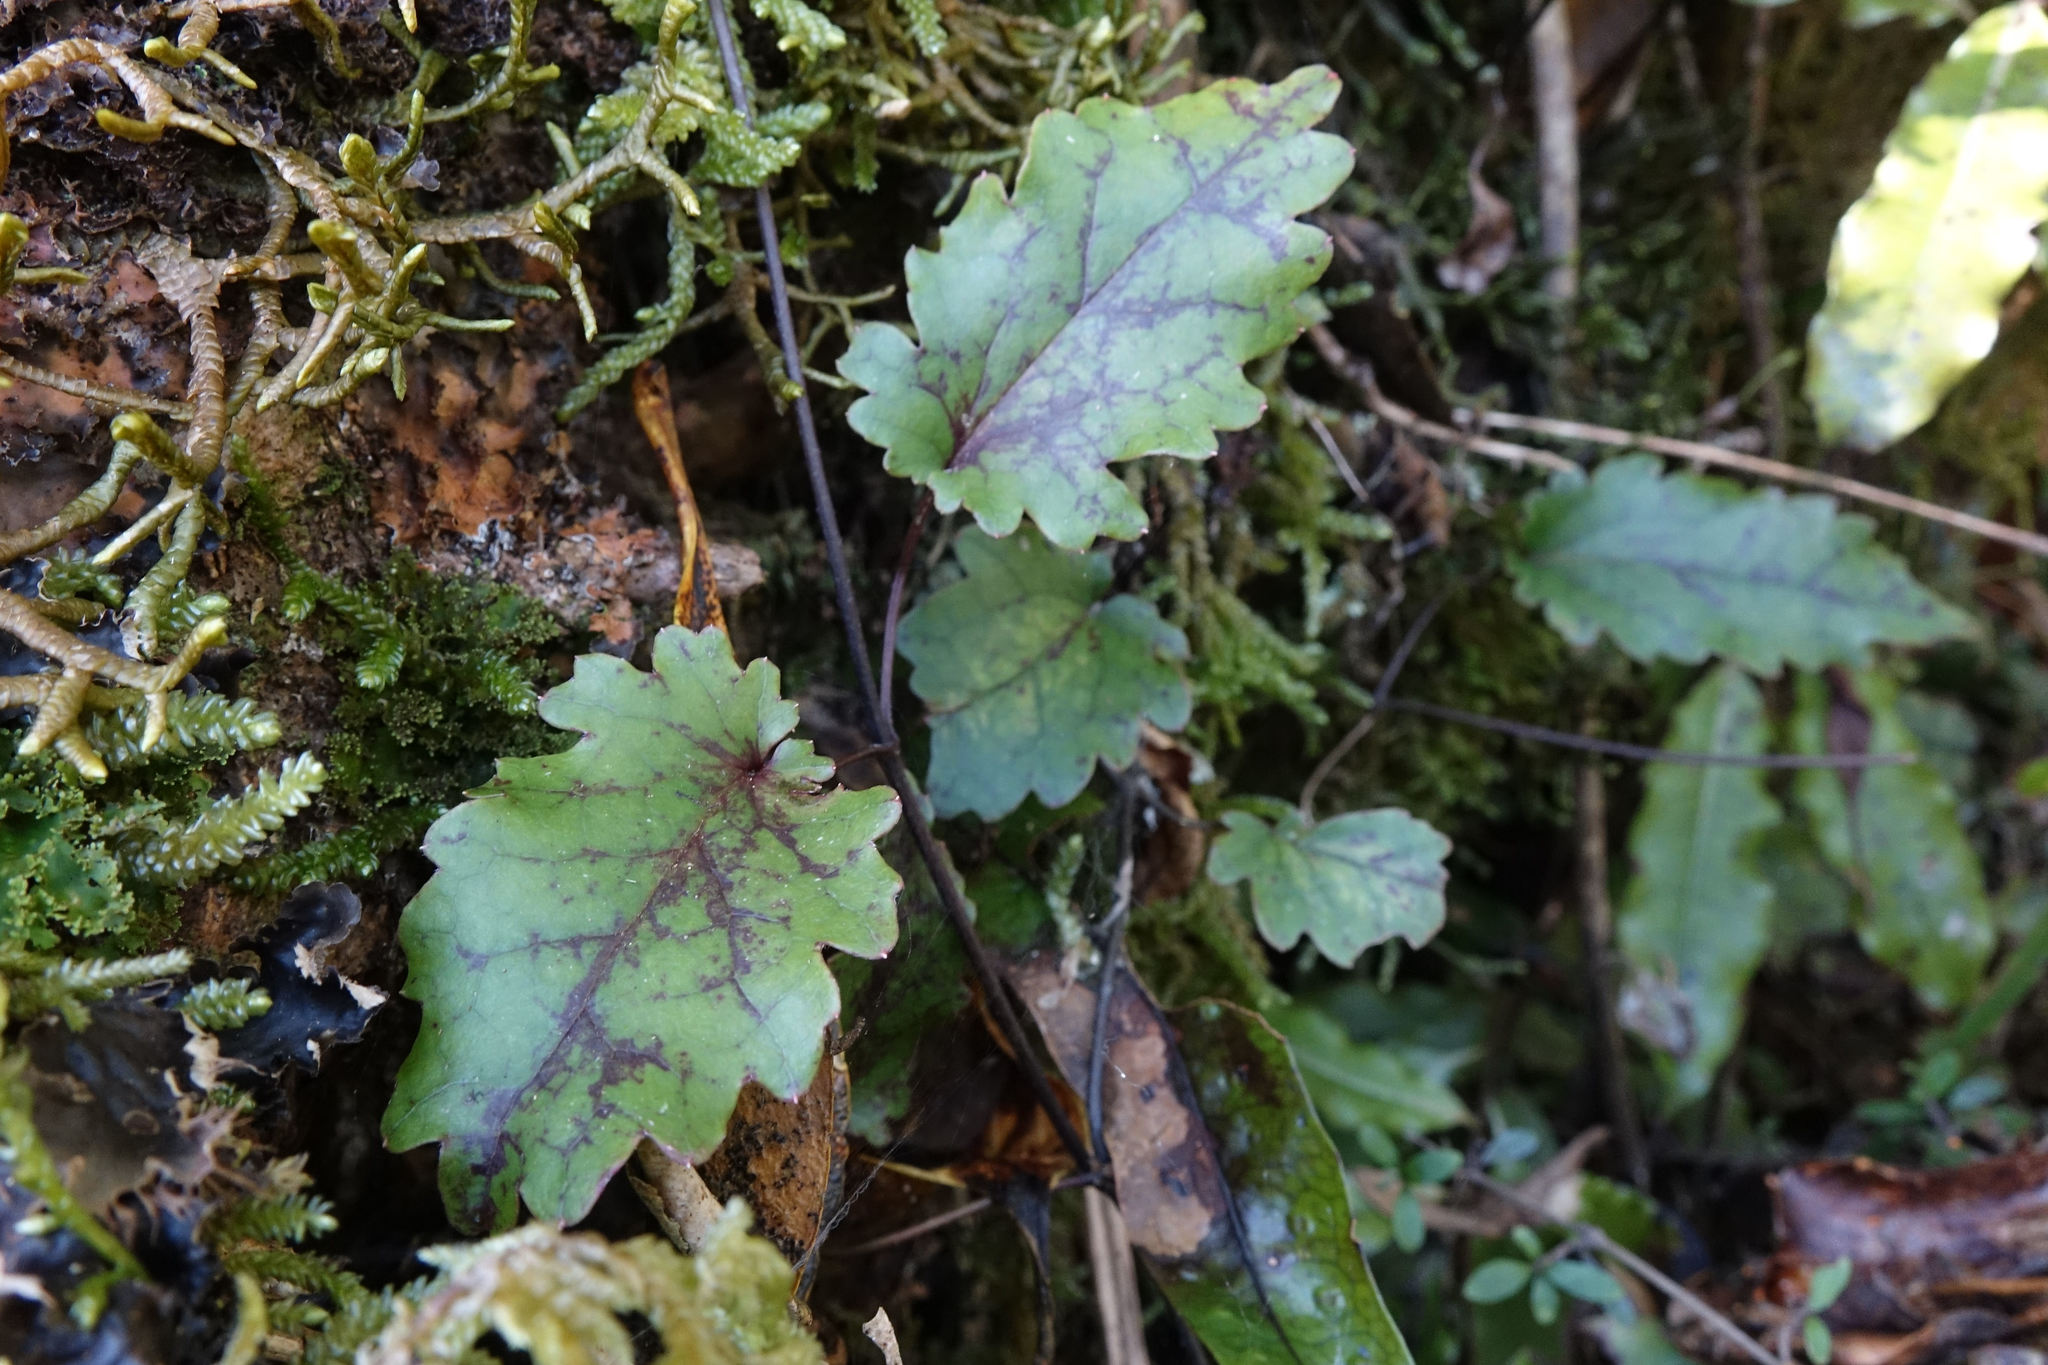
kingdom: Plantae
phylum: Tracheophyta
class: Magnoliopsida
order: Ranunculales
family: Ranunculaceae
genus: Clematis
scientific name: Clematis paniculata
